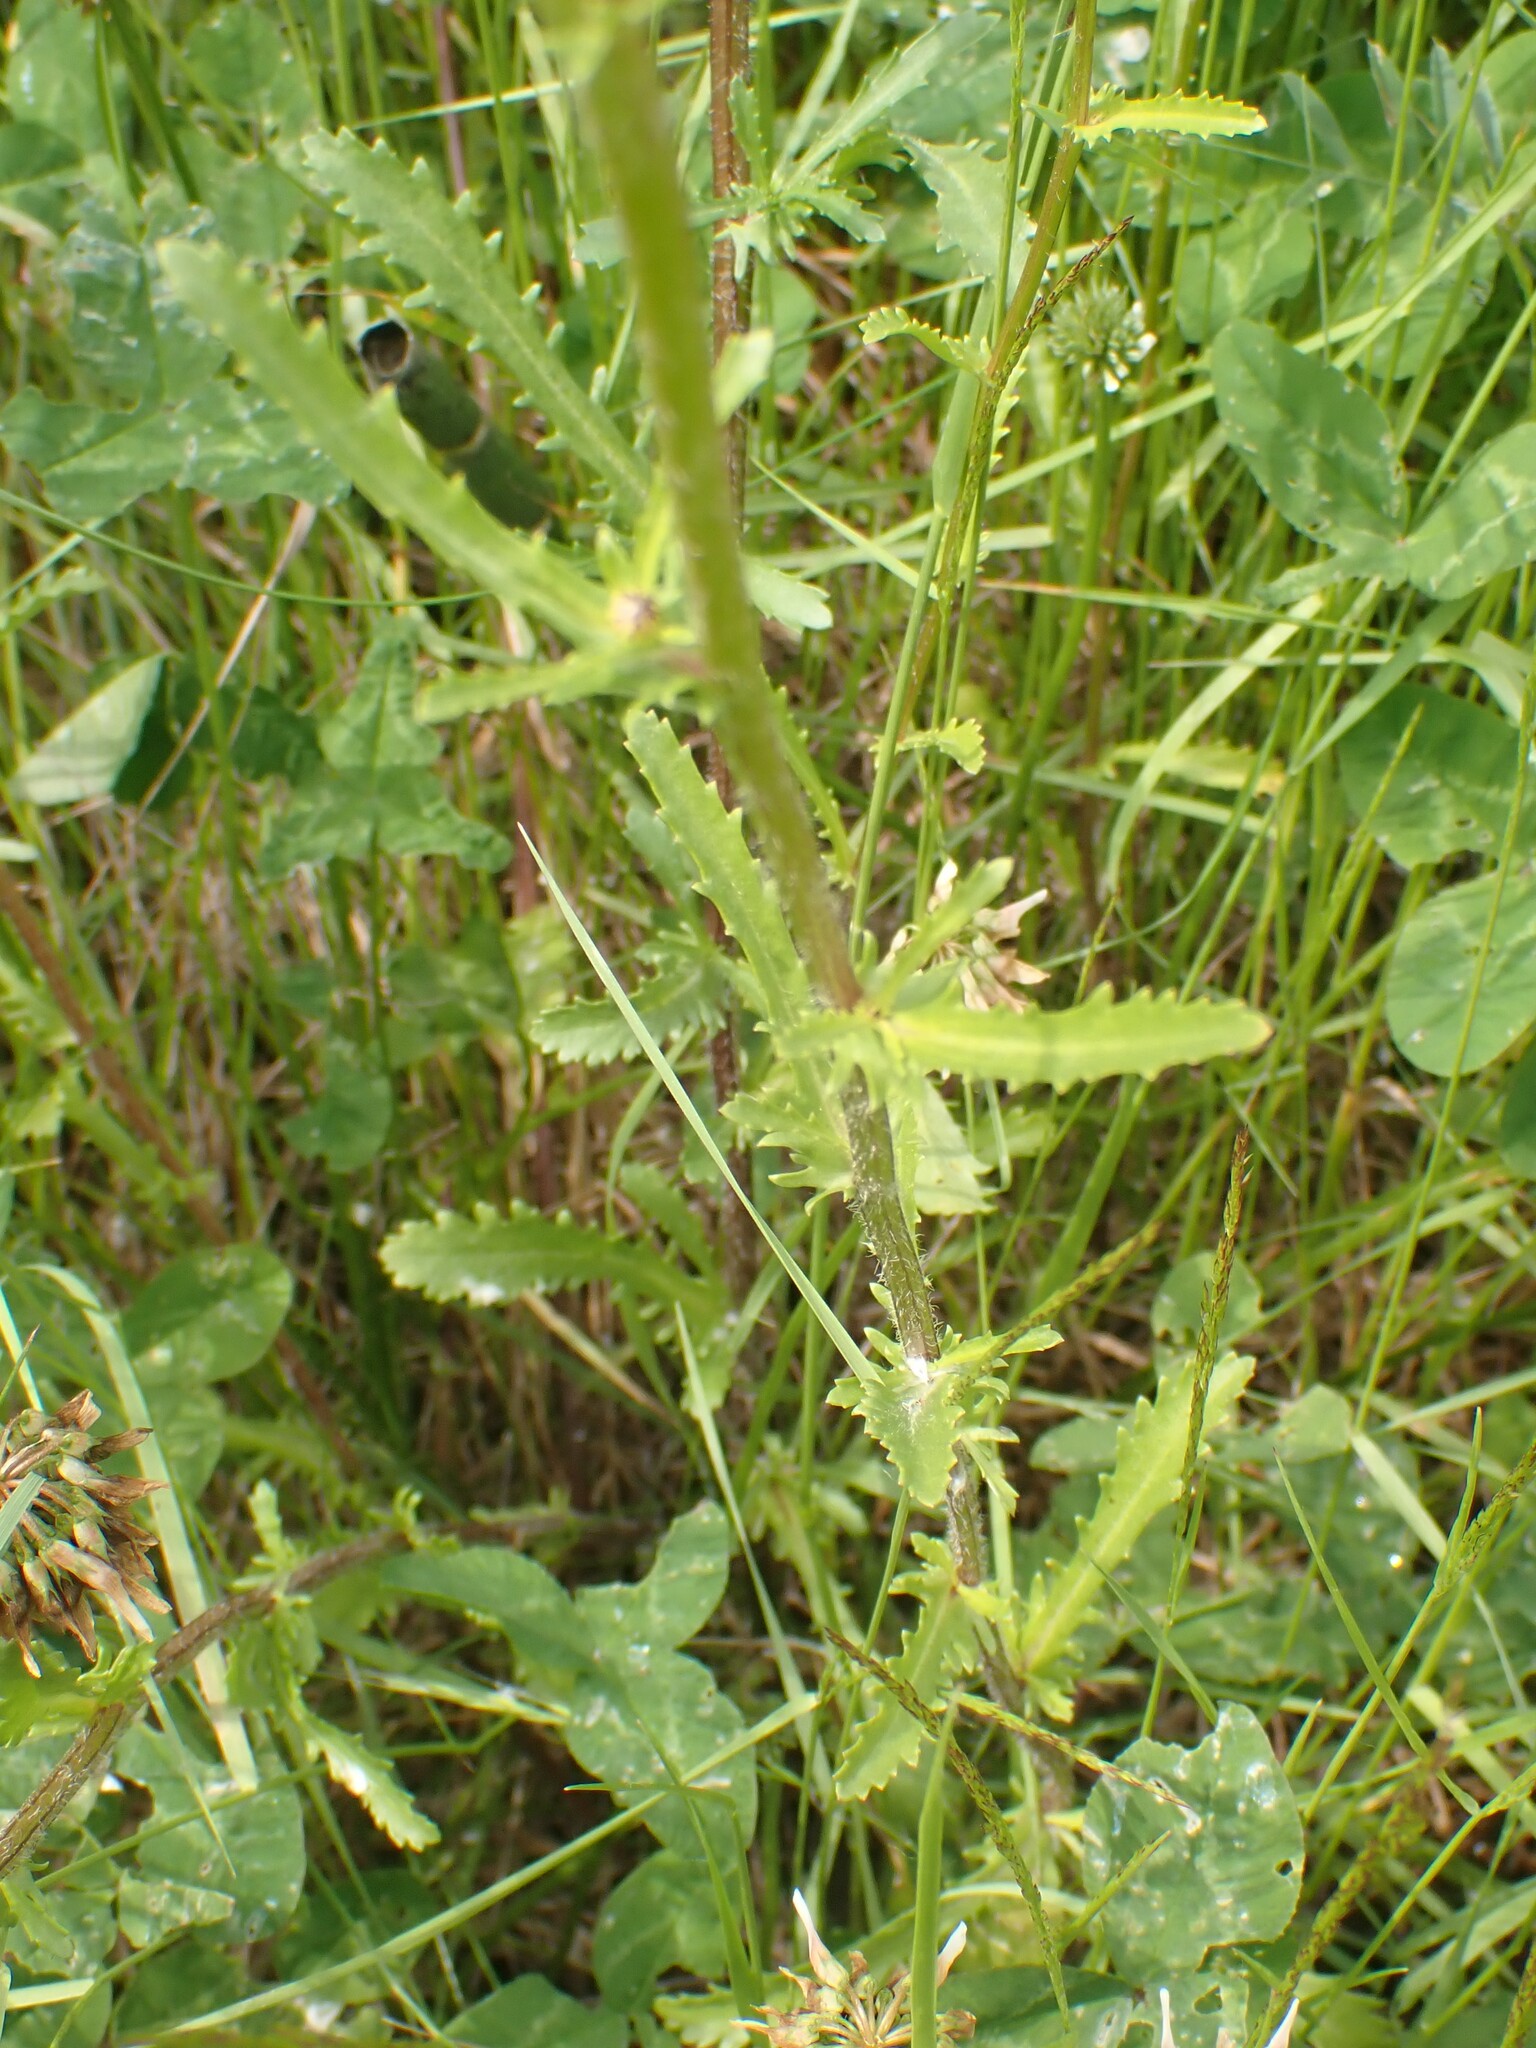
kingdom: Plantae
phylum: Tracheophyta
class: Magnoliopsida
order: Asterales
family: Asteraceae
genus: Leucanthemum
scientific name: Leucanthemum vulgare
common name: Oxeye daisy
